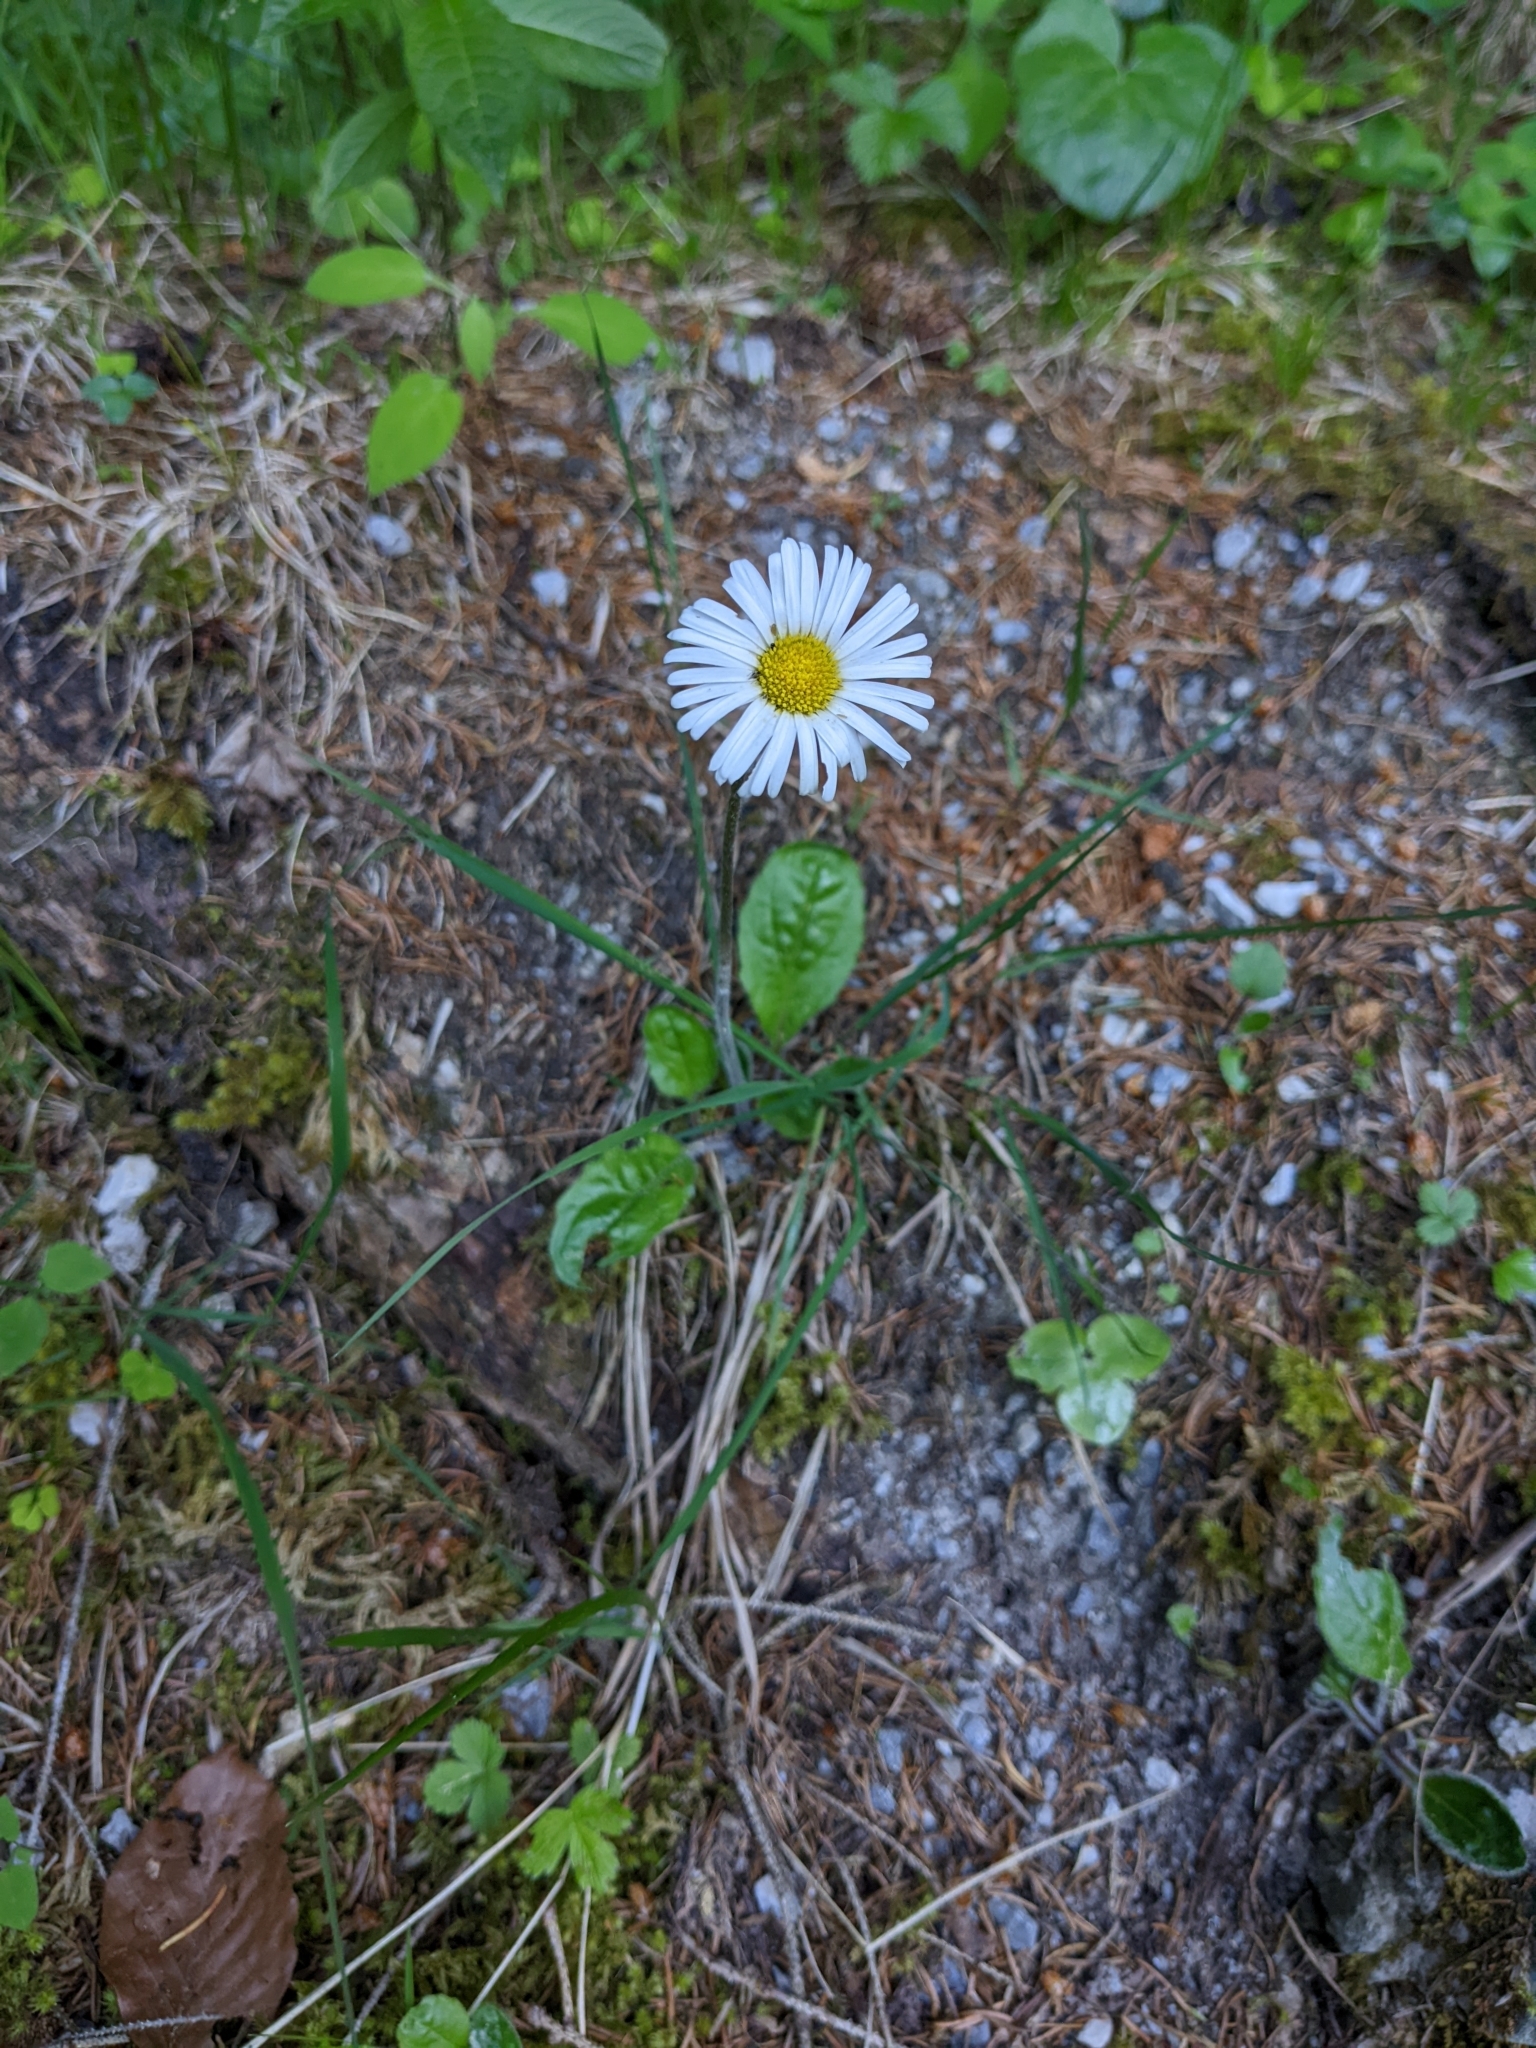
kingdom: Plantae
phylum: Tracheophyta
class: Magnoliopsida
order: Asterales
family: Asteraceae
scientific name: Asteraceae
